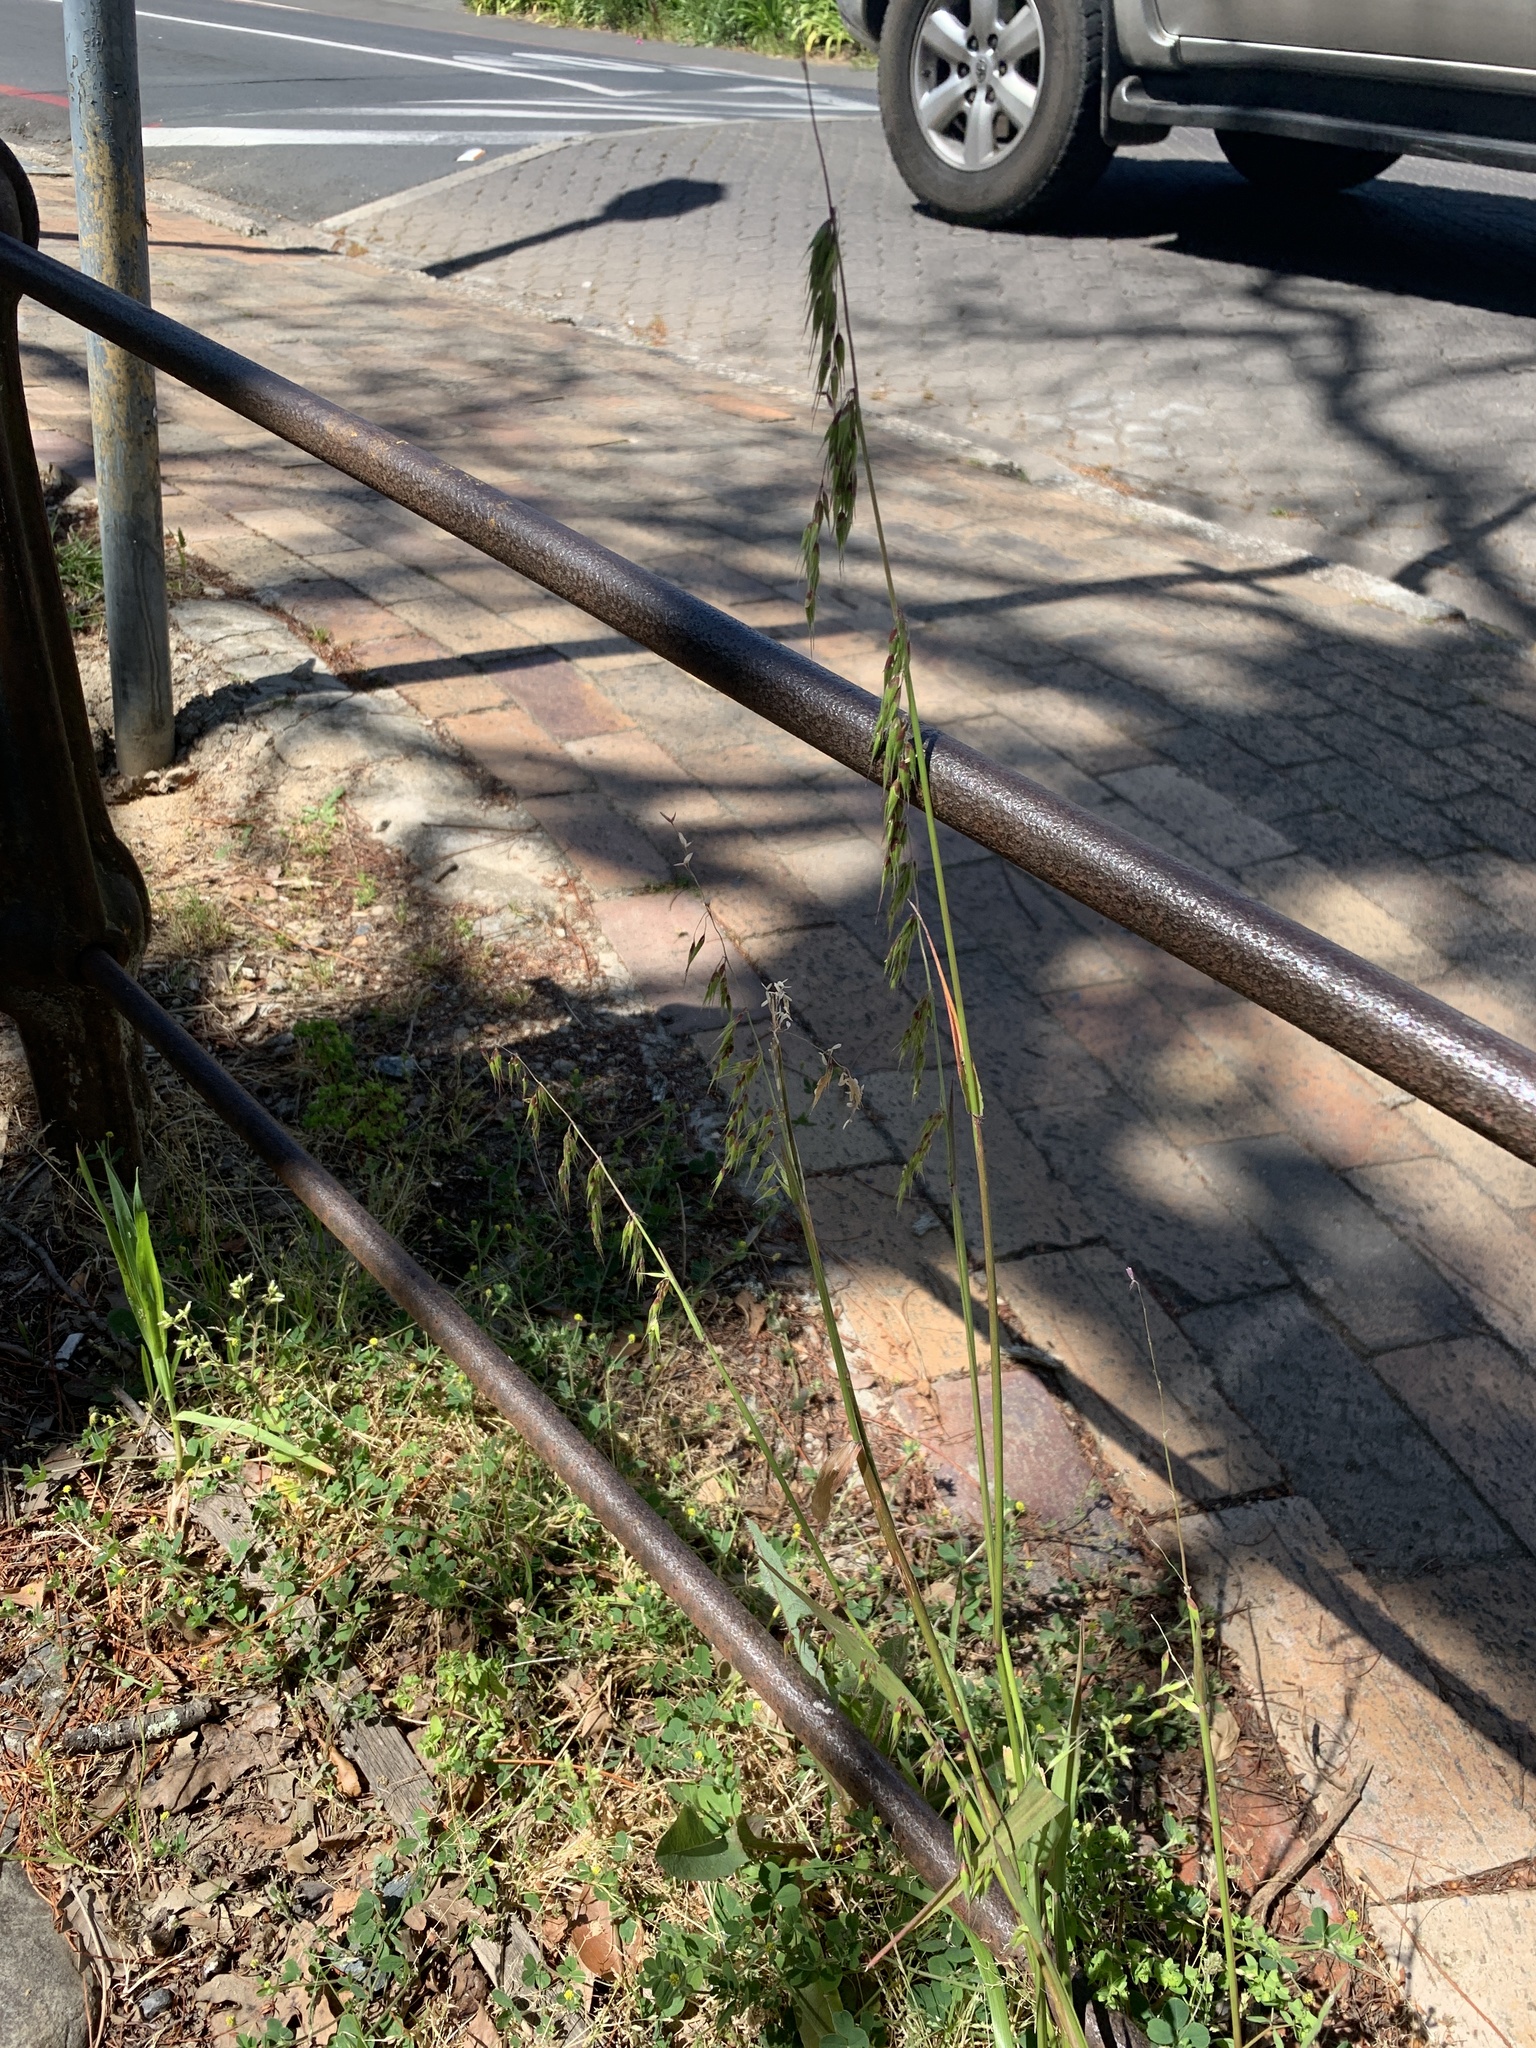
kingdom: Plantae
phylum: Tracheophyta
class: Liliopsida
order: Poales
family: Poaceae
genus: Ehrharta
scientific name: Ehrharta longiflora
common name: Longflowered veldtgrass
